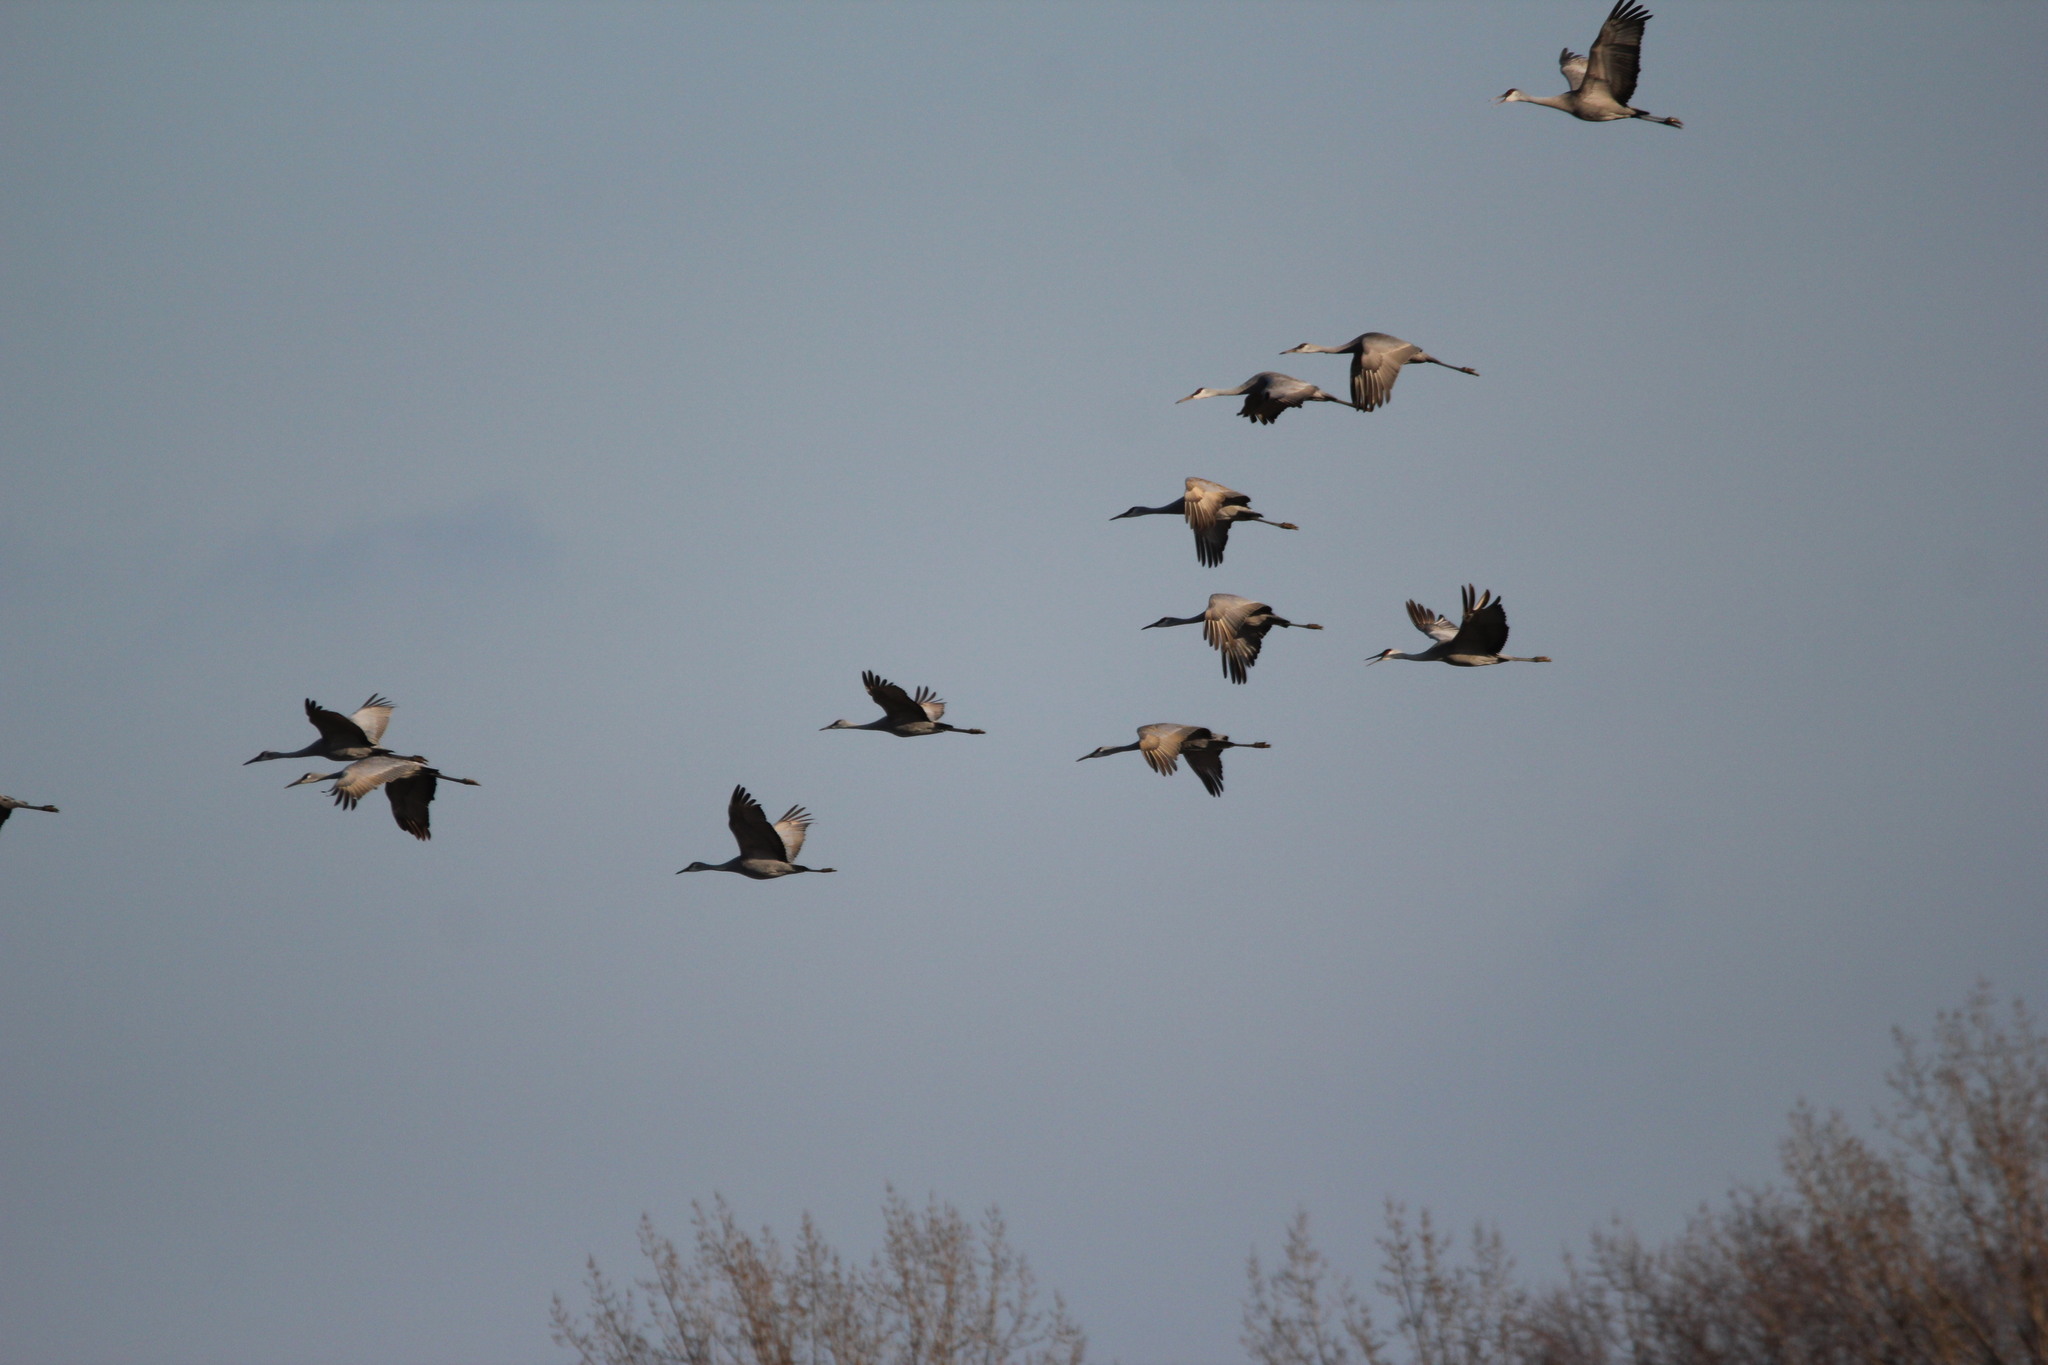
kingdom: Animalia
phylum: Chordata
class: Aves
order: Gruiformes
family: Gruidae
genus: Grus
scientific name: Grus canadensis
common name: Sandhill crane
